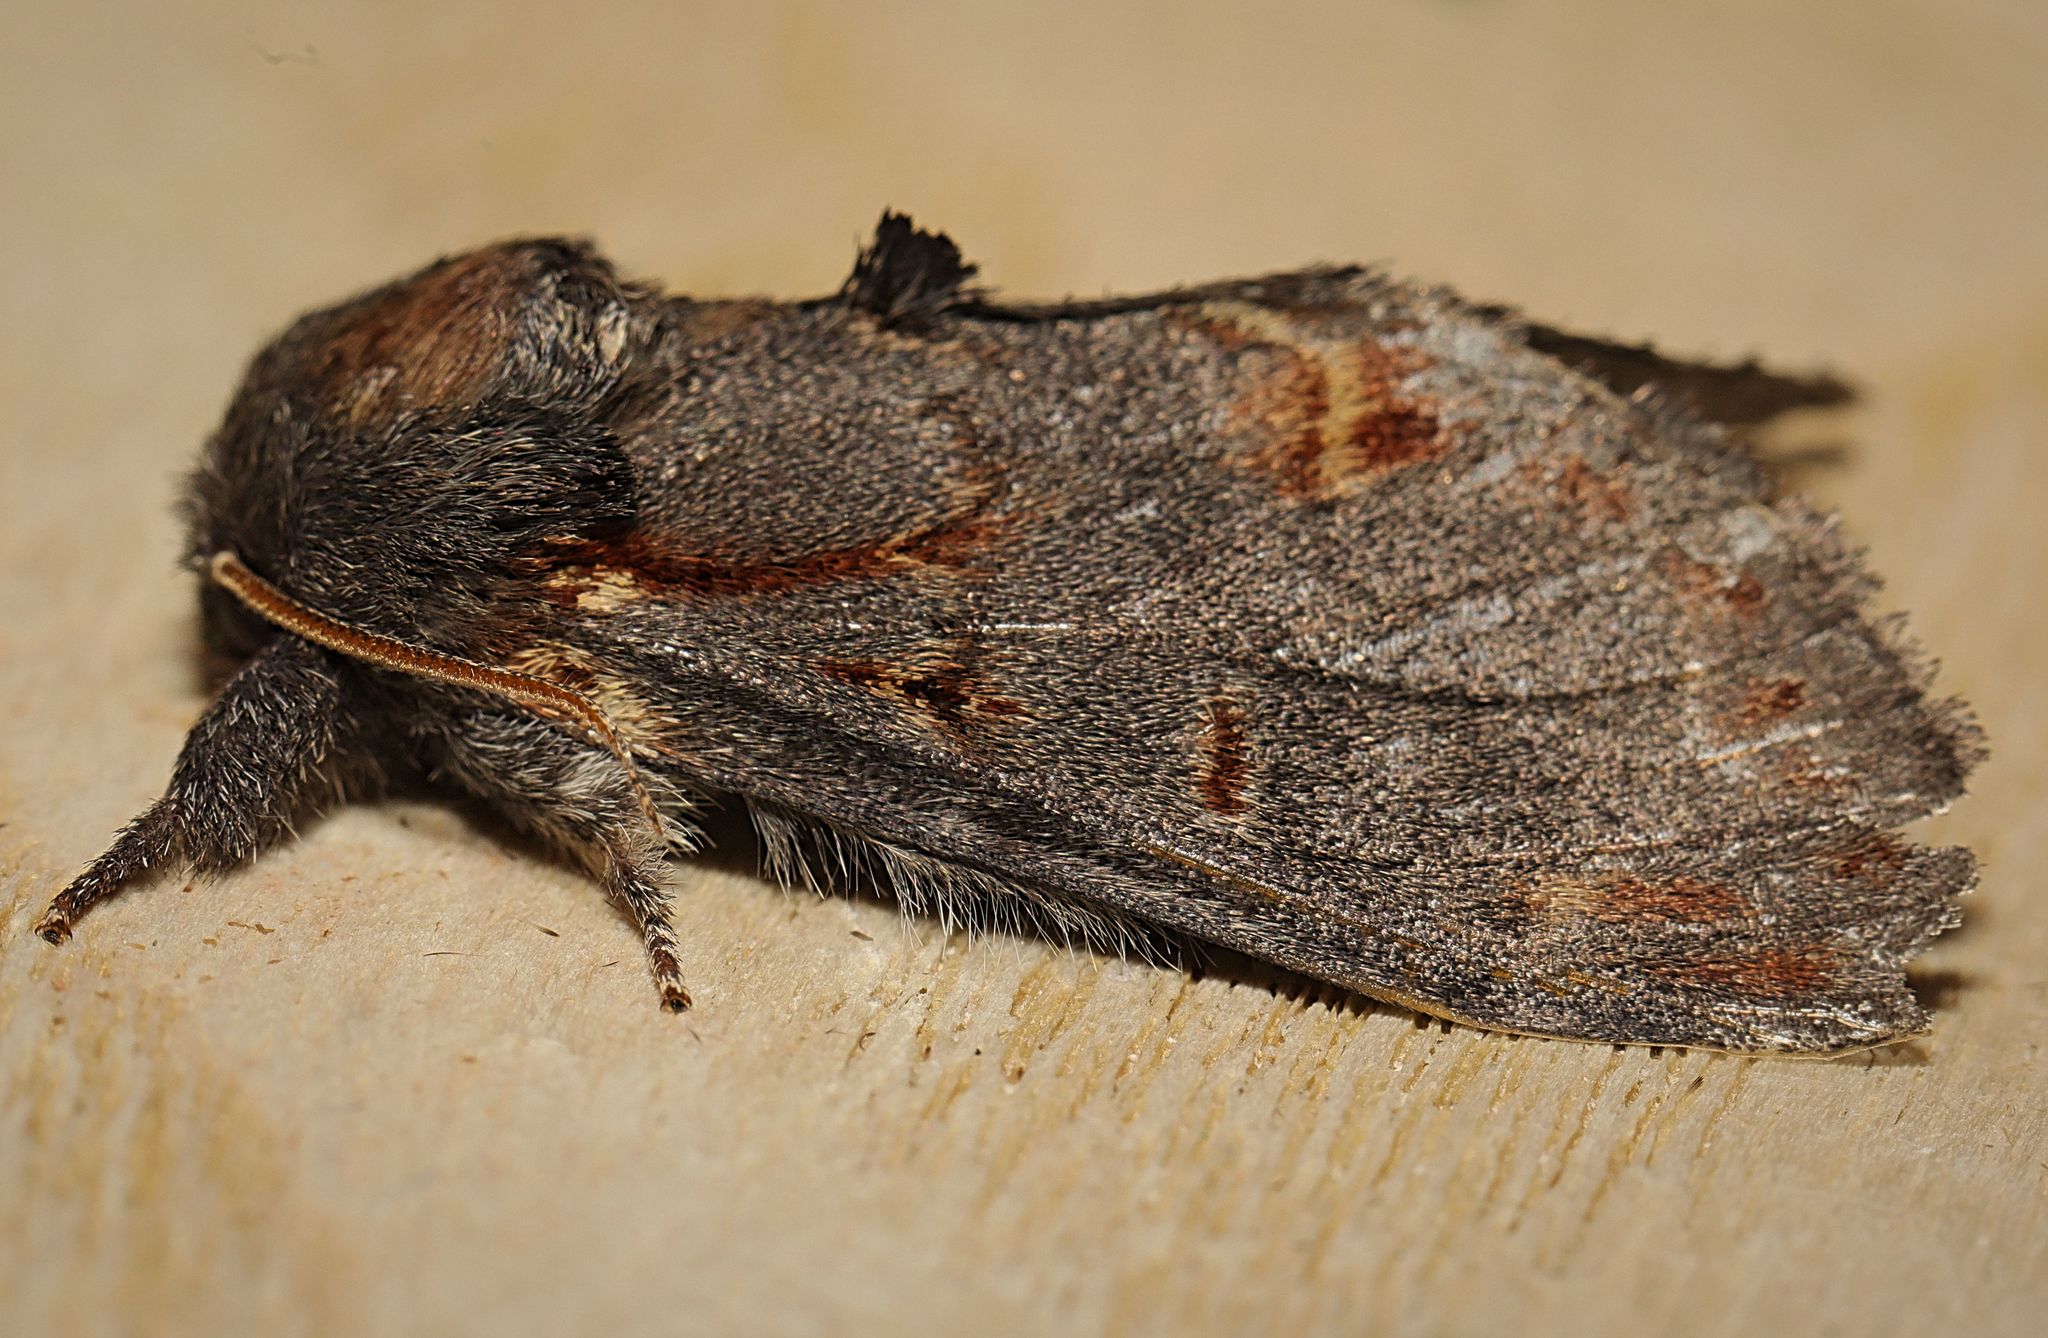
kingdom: Animalia
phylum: Arthropoda
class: Insecta
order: Lepidoptera
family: Notodontidae
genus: Notodonta
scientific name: Notodonta dromedarius
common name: Iron prominent
